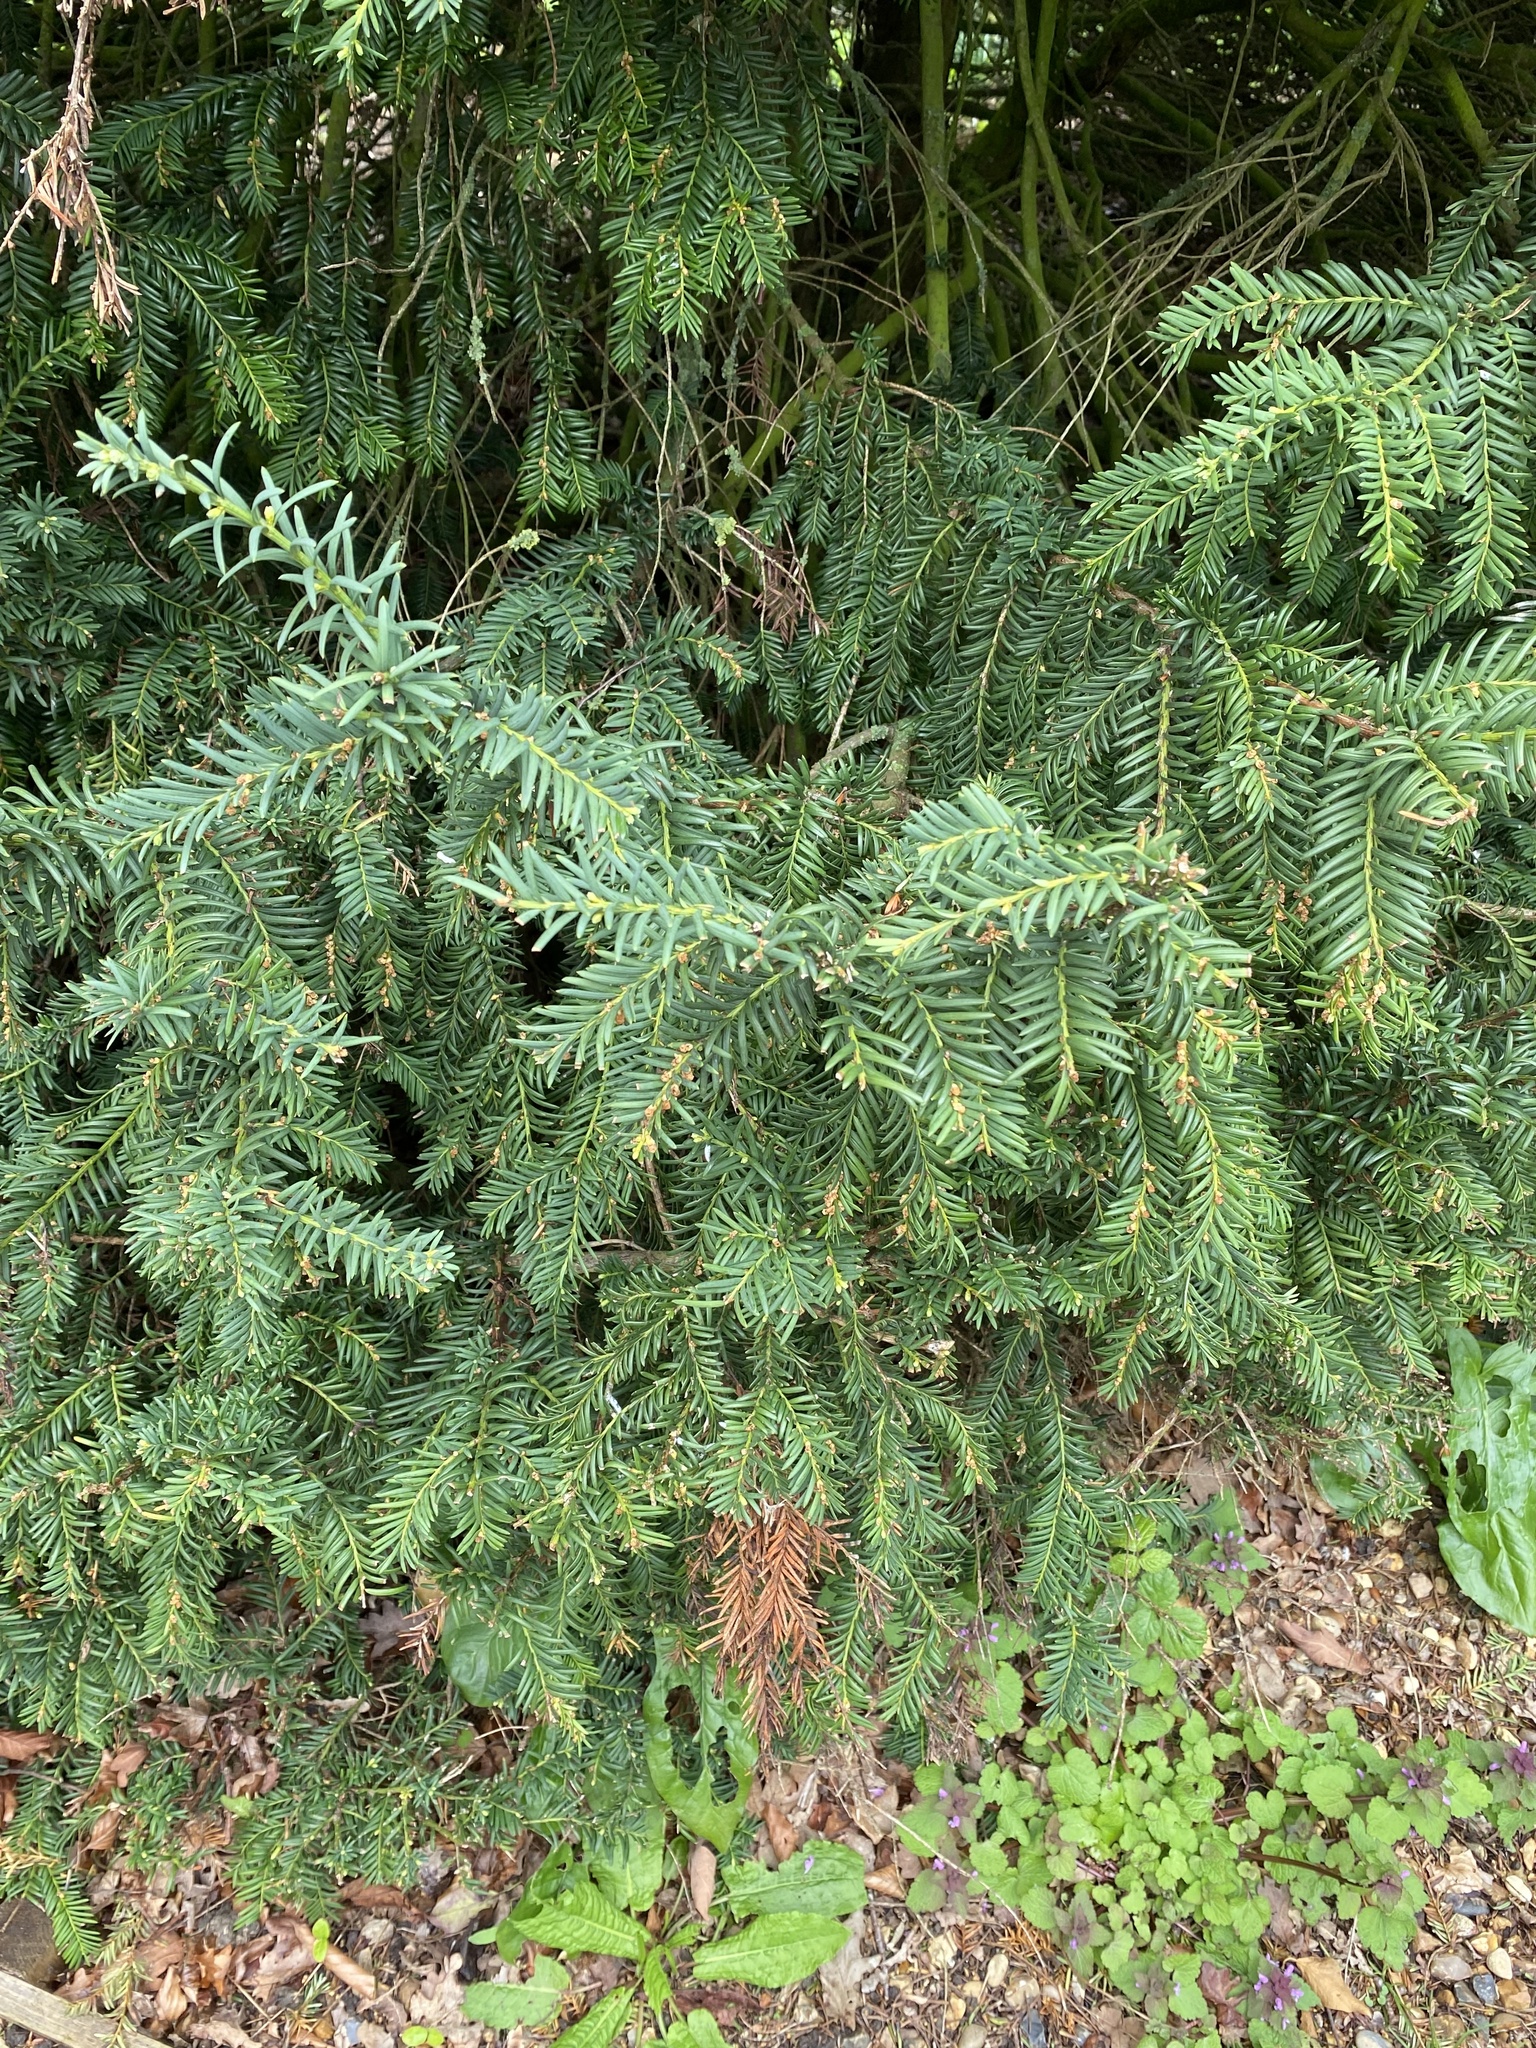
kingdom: Plantae
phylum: Tracheophyta
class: Pinopsida
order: Pinales
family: Taxaceae
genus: Taxus
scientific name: Taxus baccata
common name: Yew
